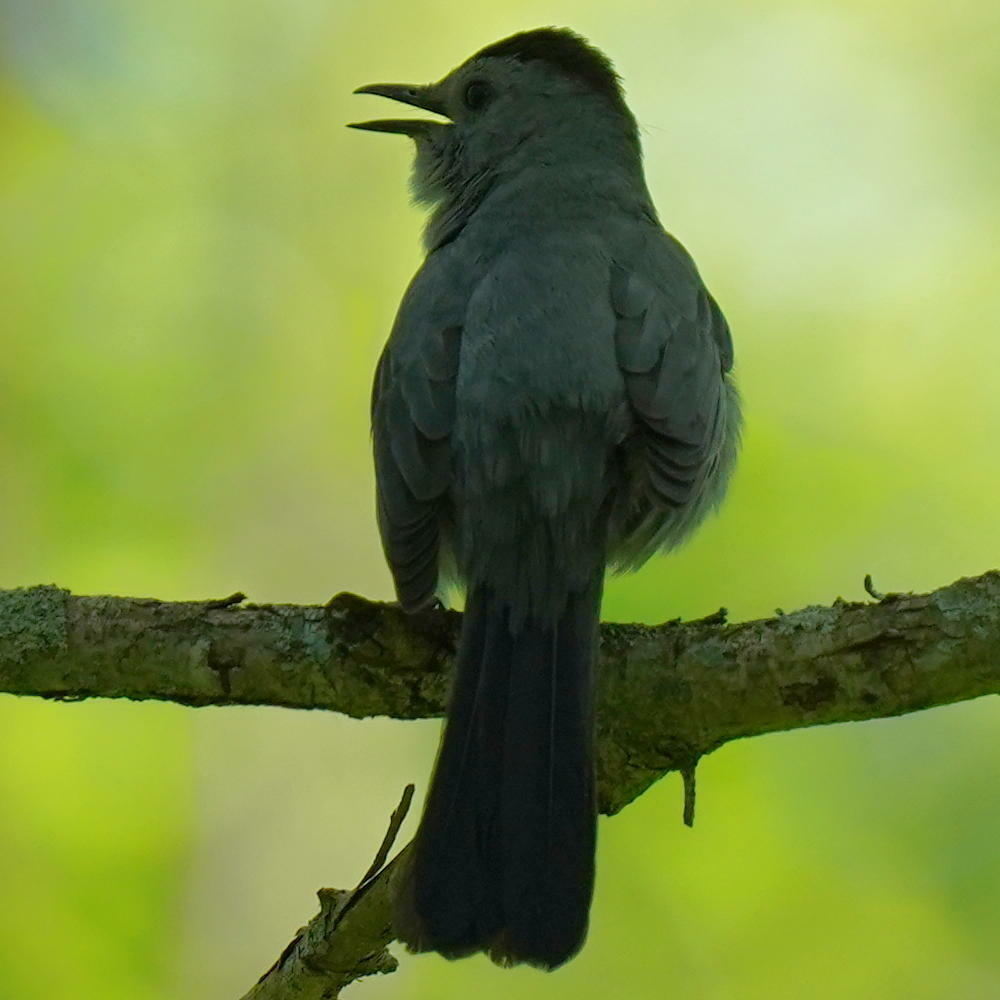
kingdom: Animalia
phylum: Chordata
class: Aves
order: Passeriformes
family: Mimidae
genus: Dumetella
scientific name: Dumetella carolinensis
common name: Gray catbird
